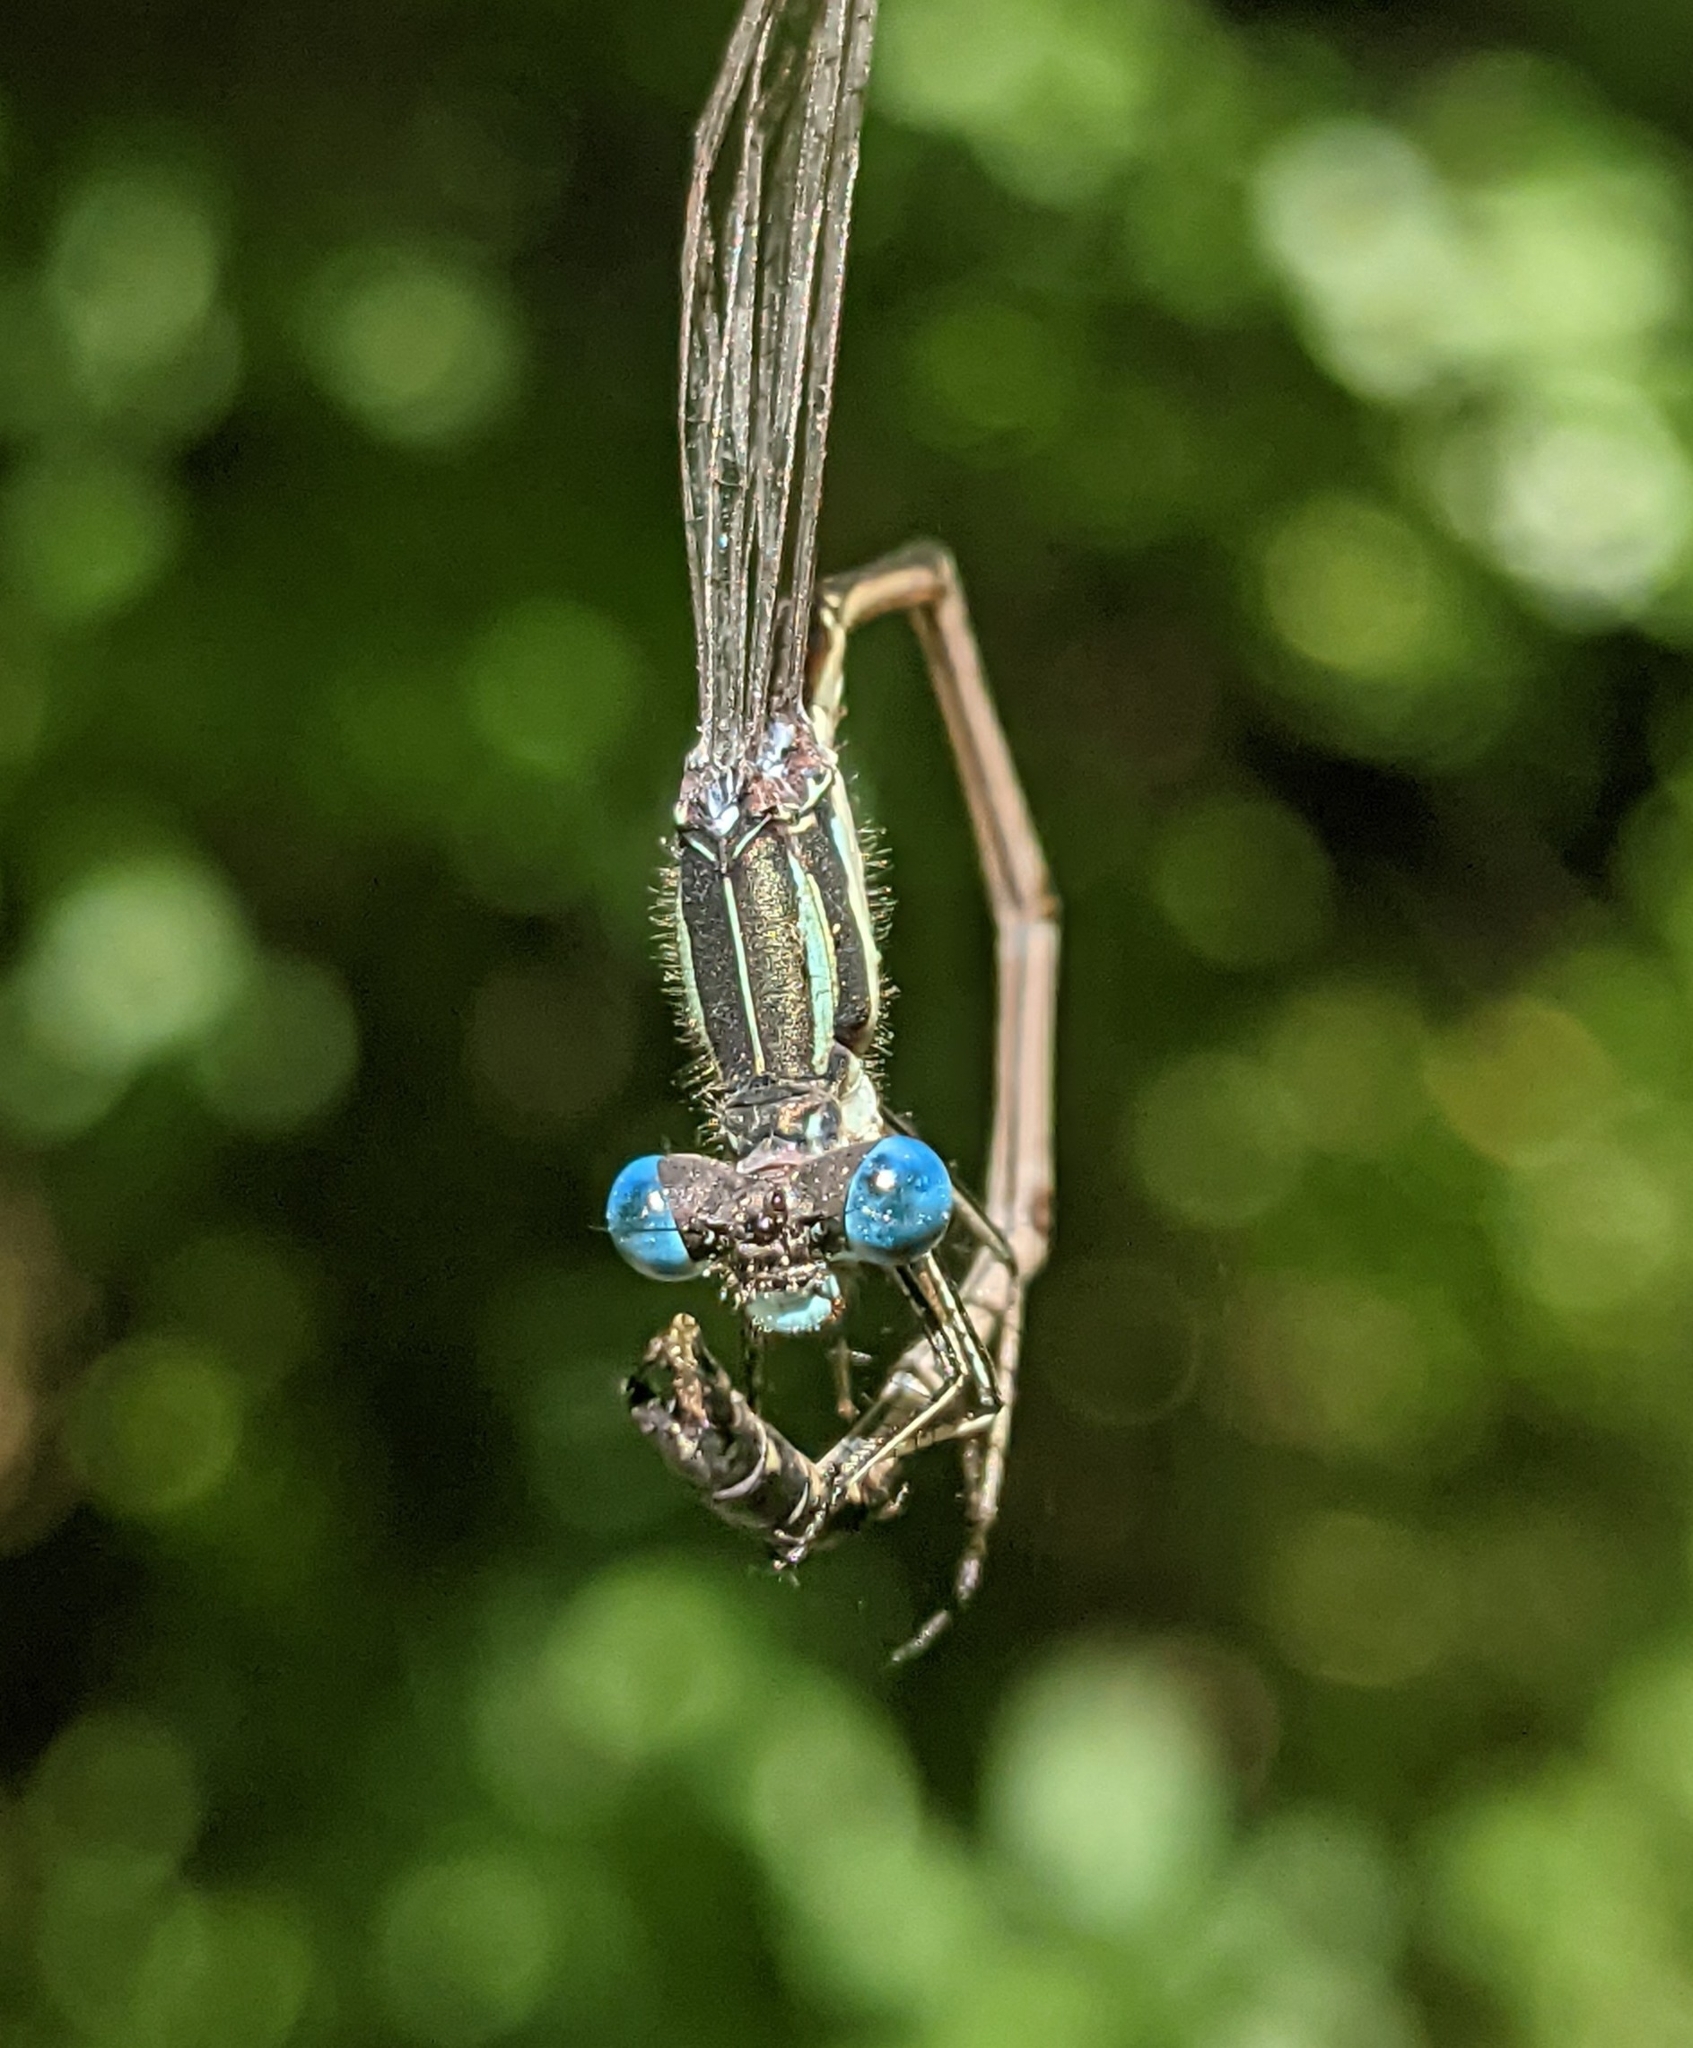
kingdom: Animalia
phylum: Arthropoda
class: Insecta
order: Odonata
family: Lestidae
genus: Lestes
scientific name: Lestes rectangularis
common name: Slender spreadwing
